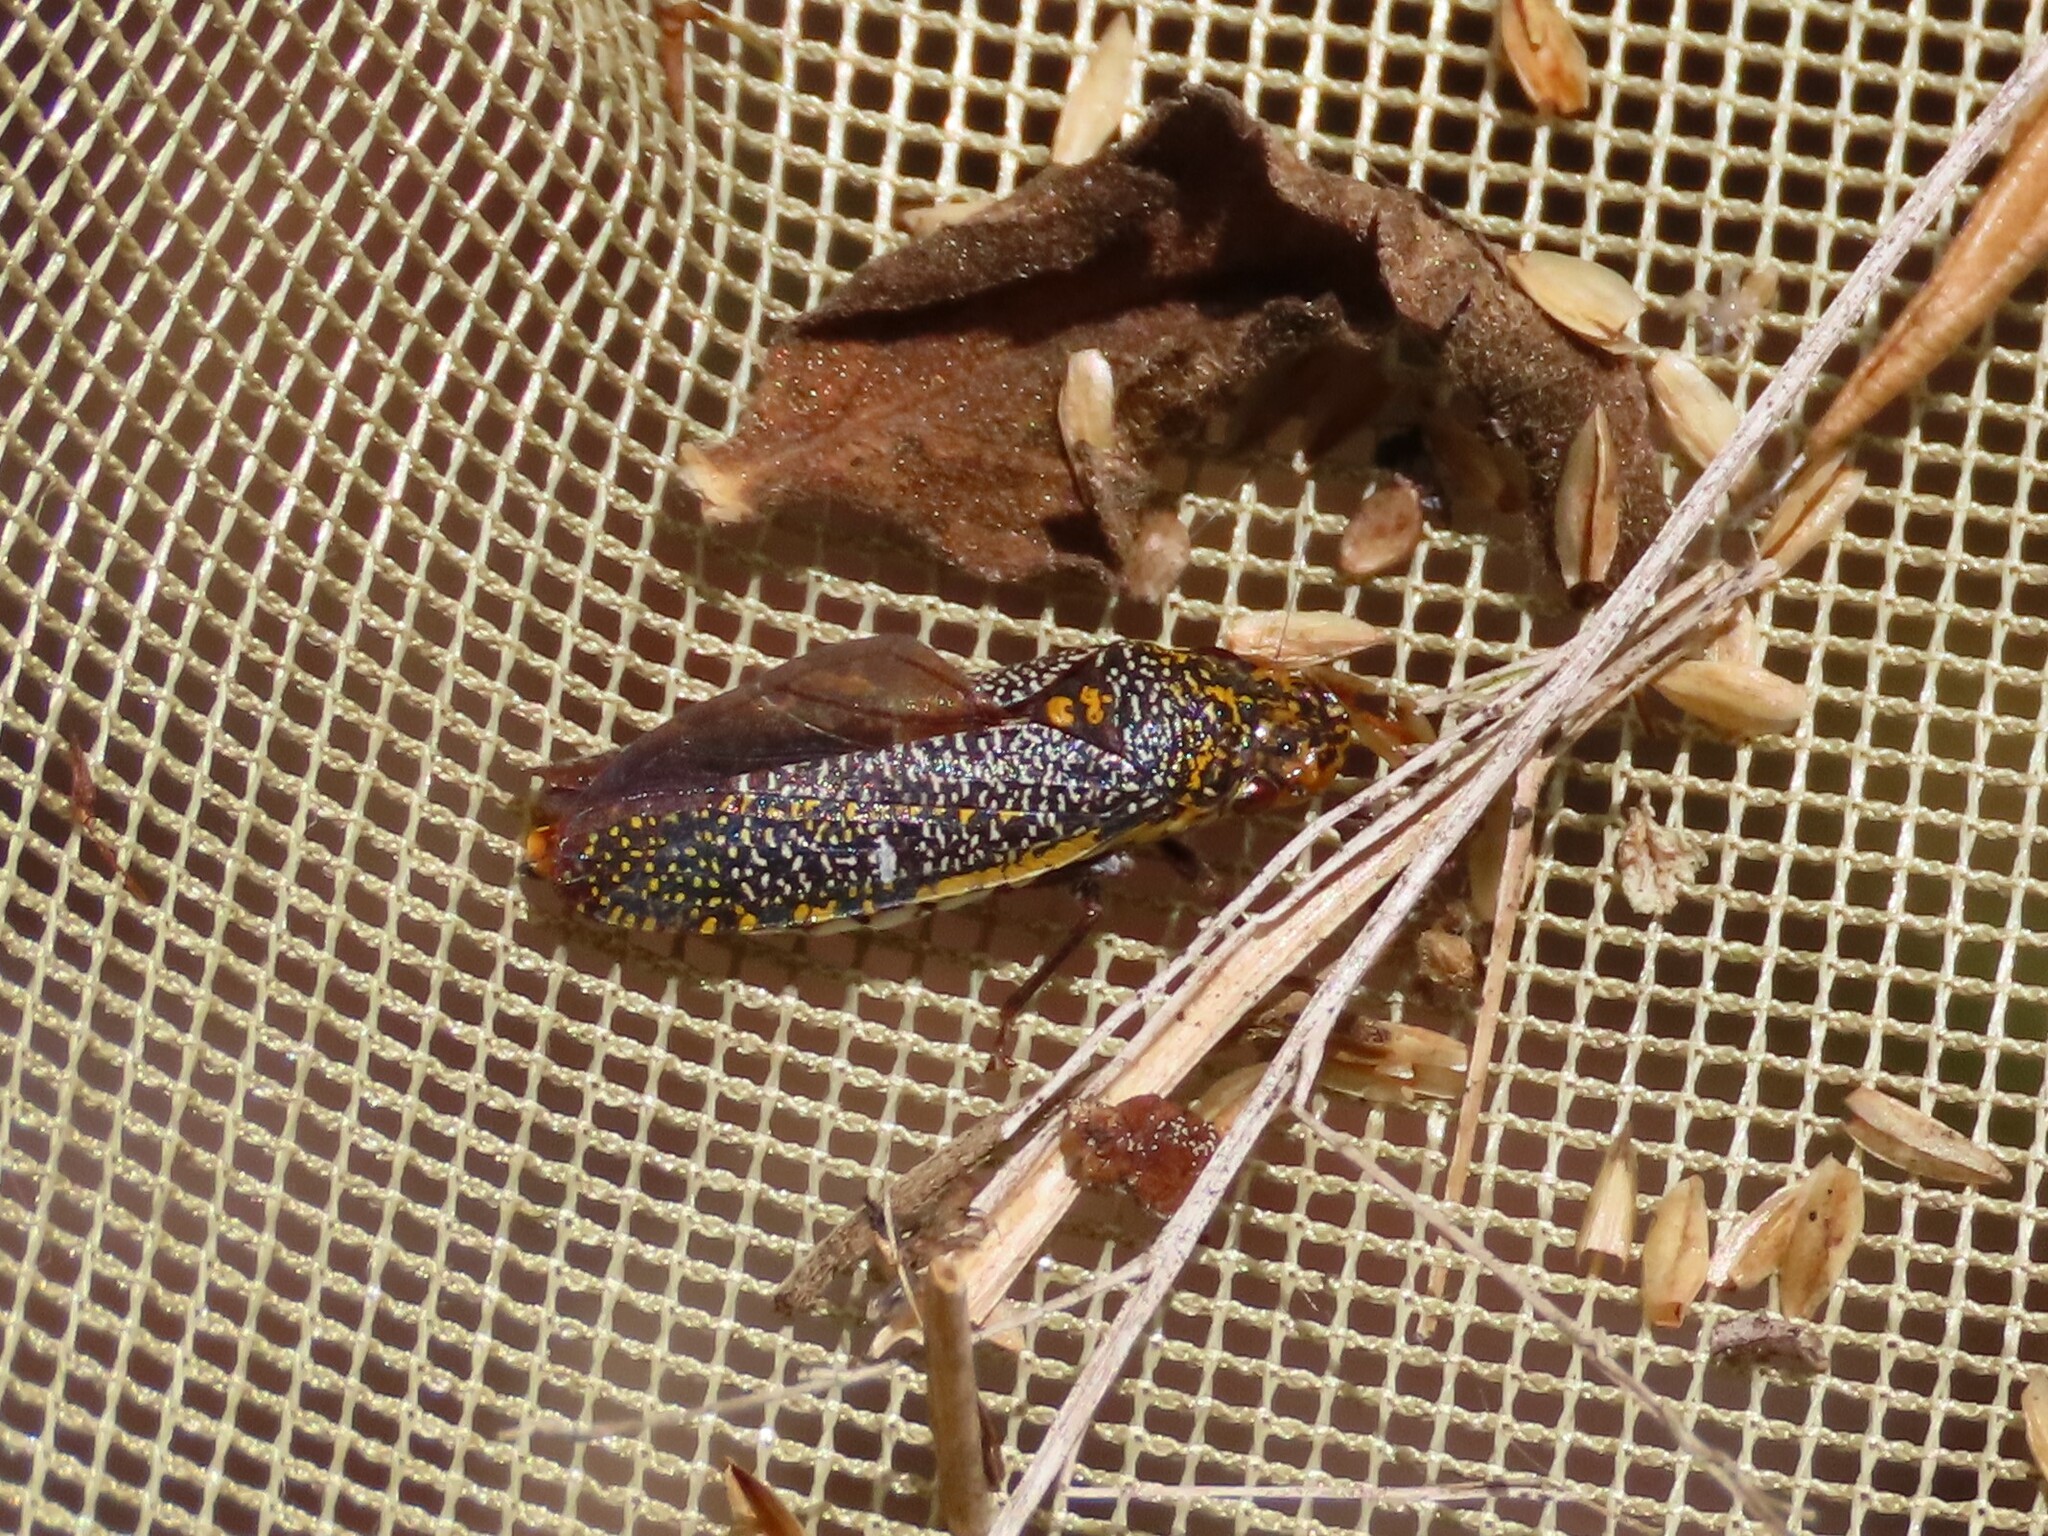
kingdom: Animalia
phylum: Arthropoda
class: Insecta
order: Hemiptera
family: Cicadellidae
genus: Paraulacizes
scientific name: Paraulacizes irrorata
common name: Speckled sharpshooter
